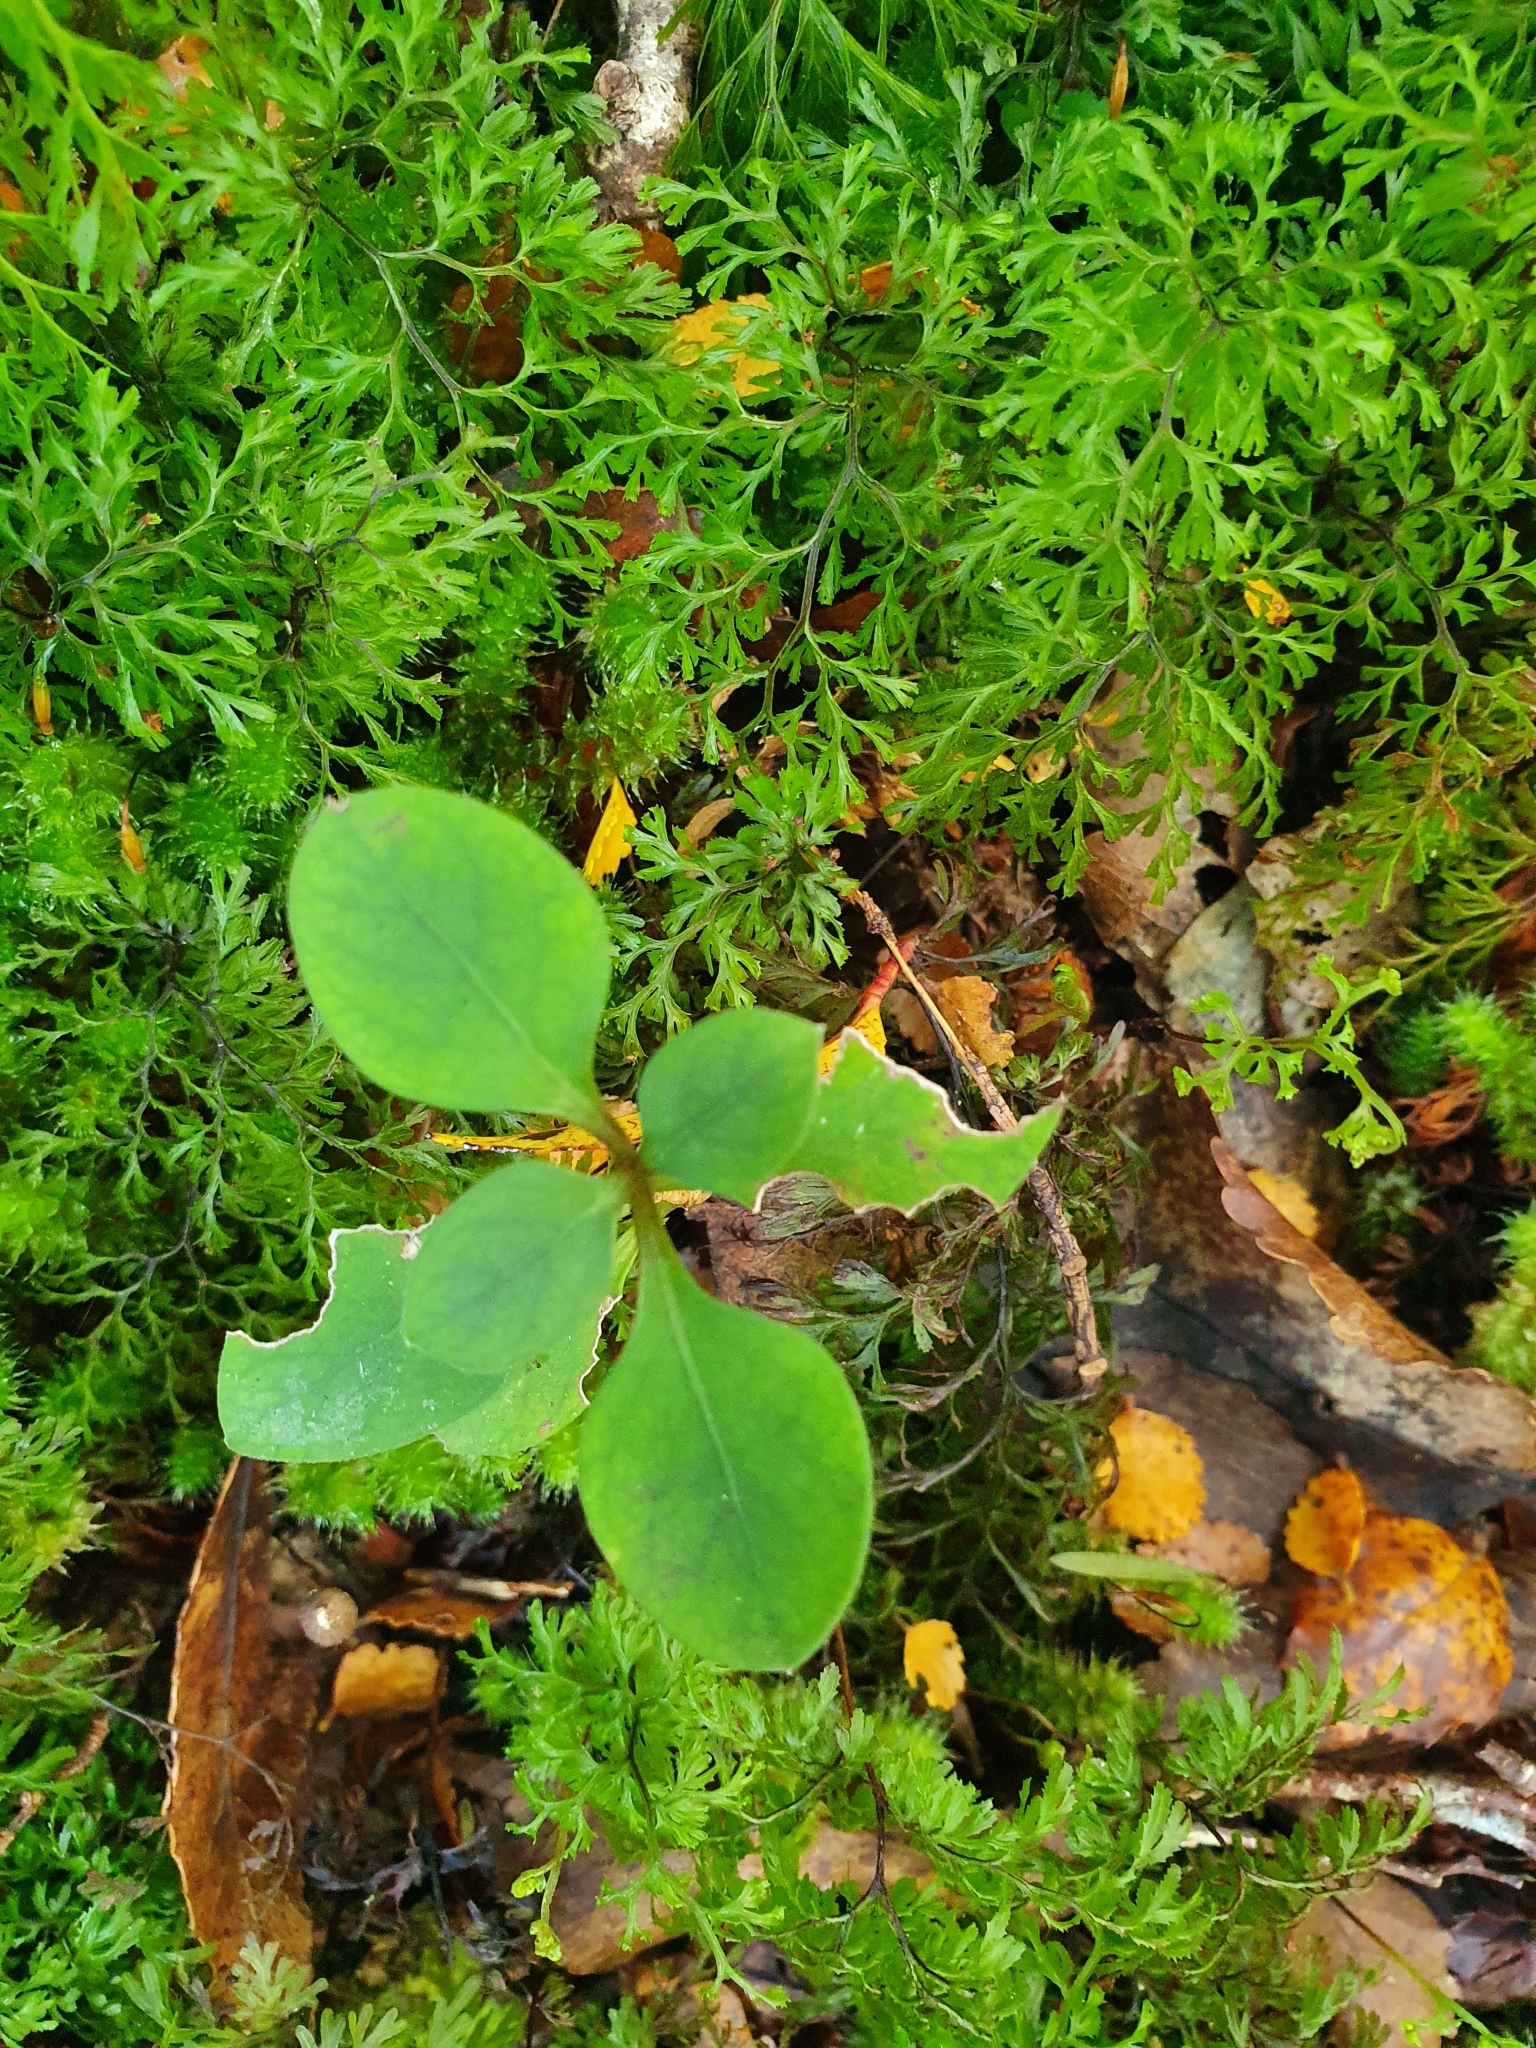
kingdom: Plantae
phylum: Tracheophyta
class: Magnoliopsida
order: Gentianales
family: Rubiaceae
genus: Coprosma
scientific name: Coprosma foetidissima
